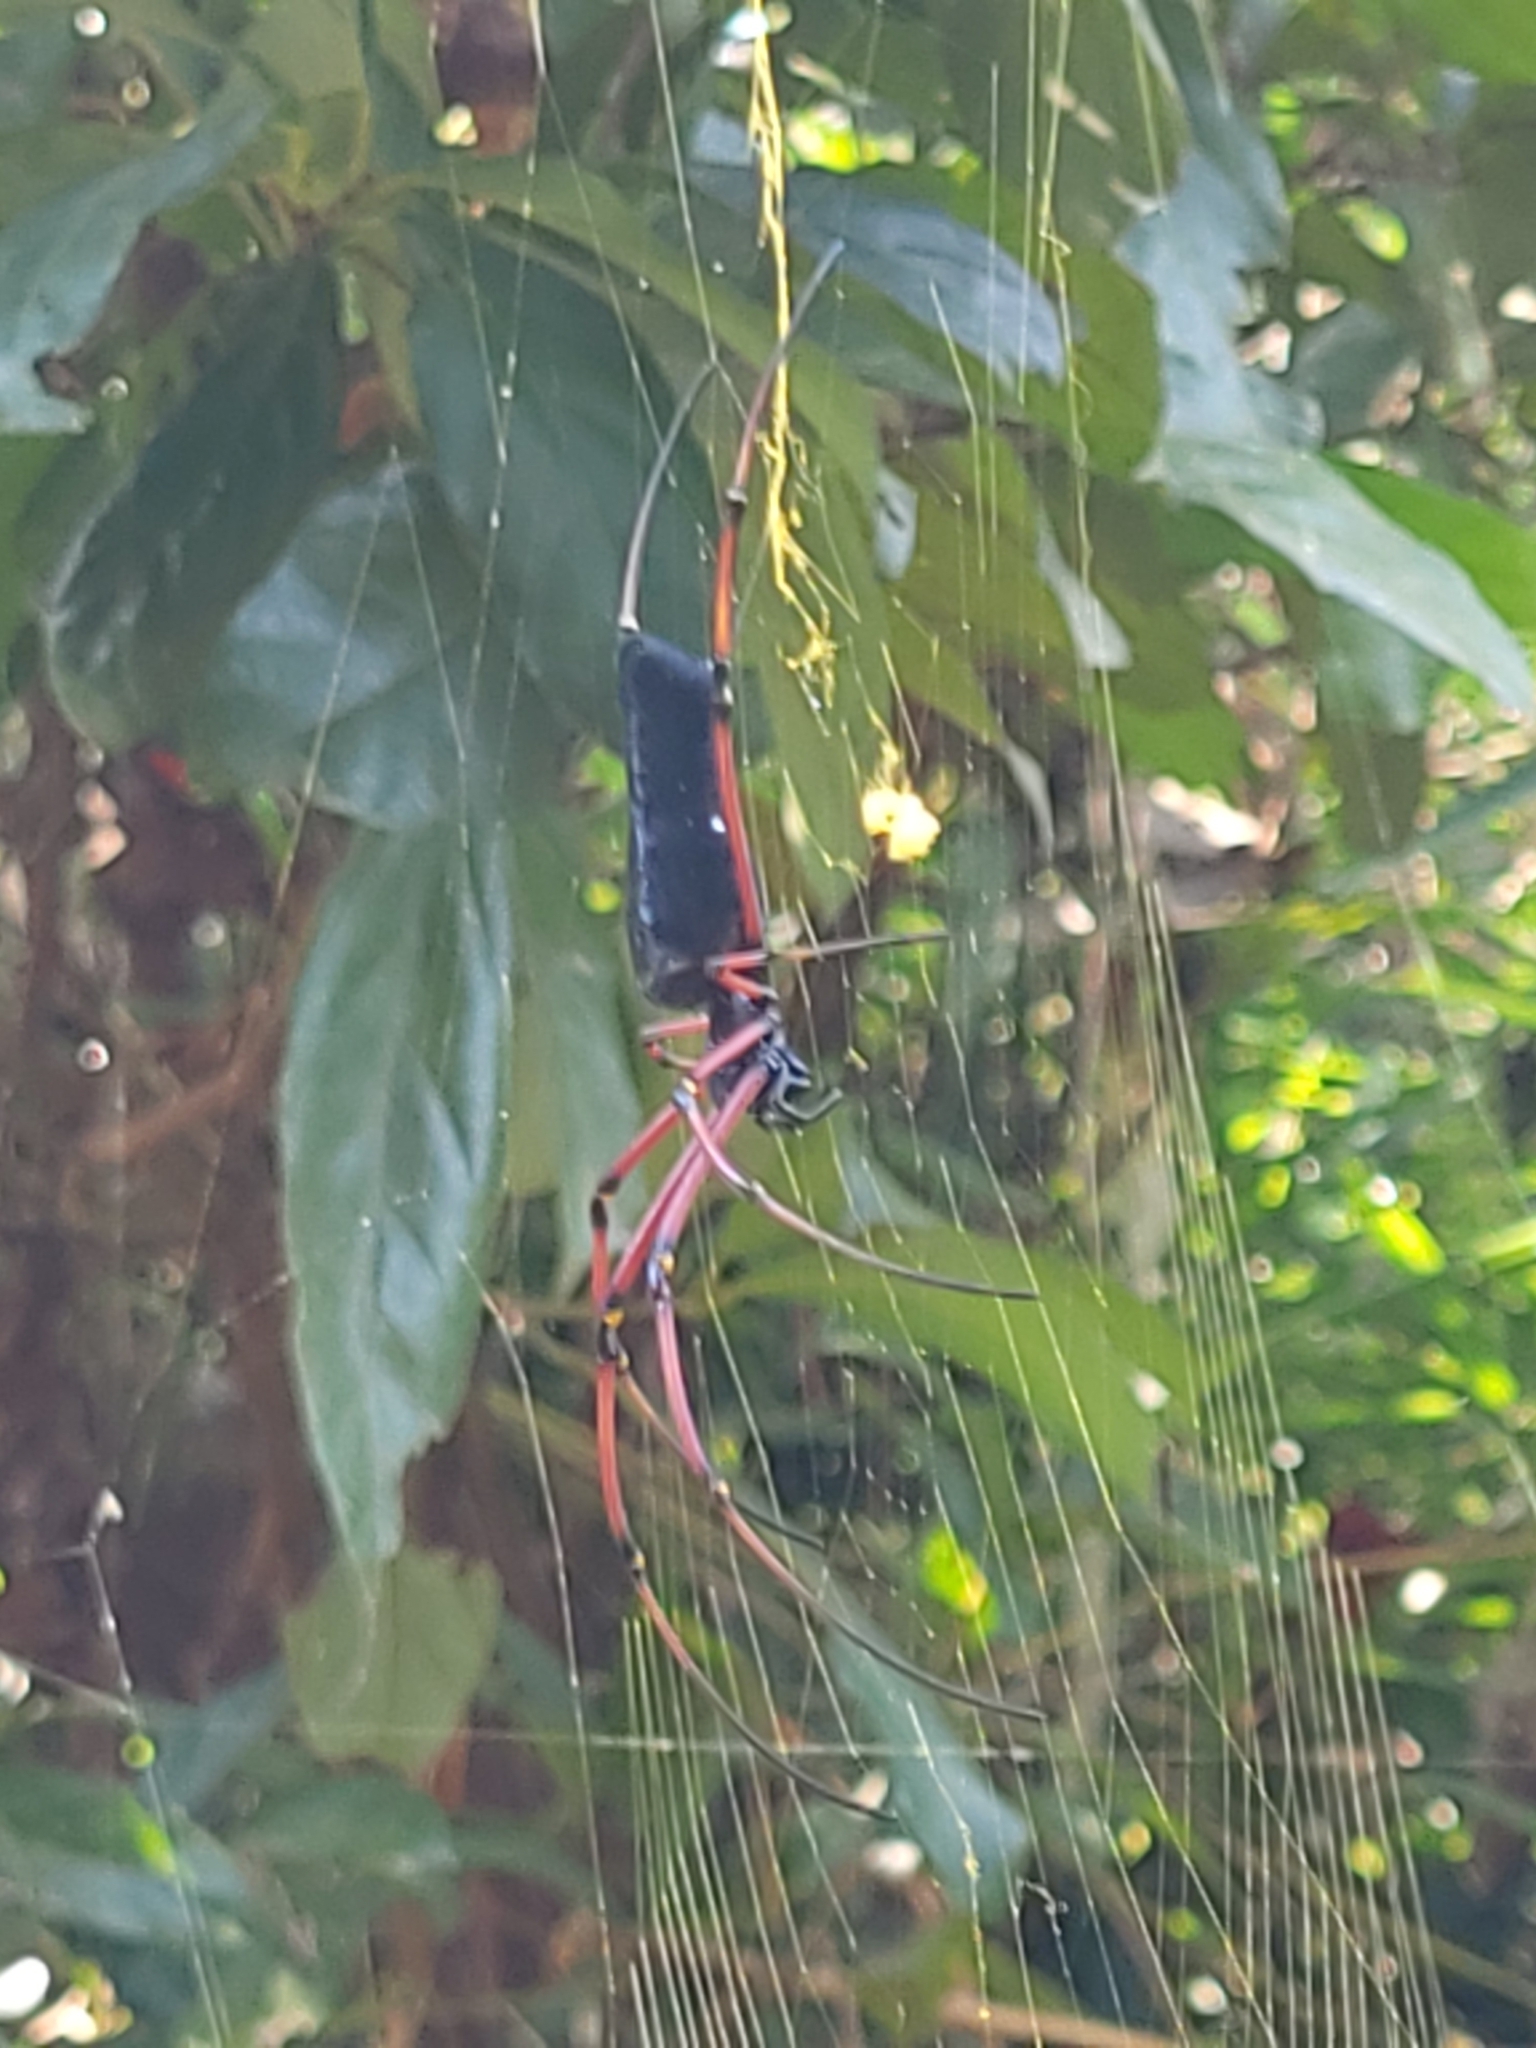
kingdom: Animalia
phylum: Arthropoda
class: Arachnida
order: Araneae
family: Araneidae
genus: Nephila
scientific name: Nephila kuhli
